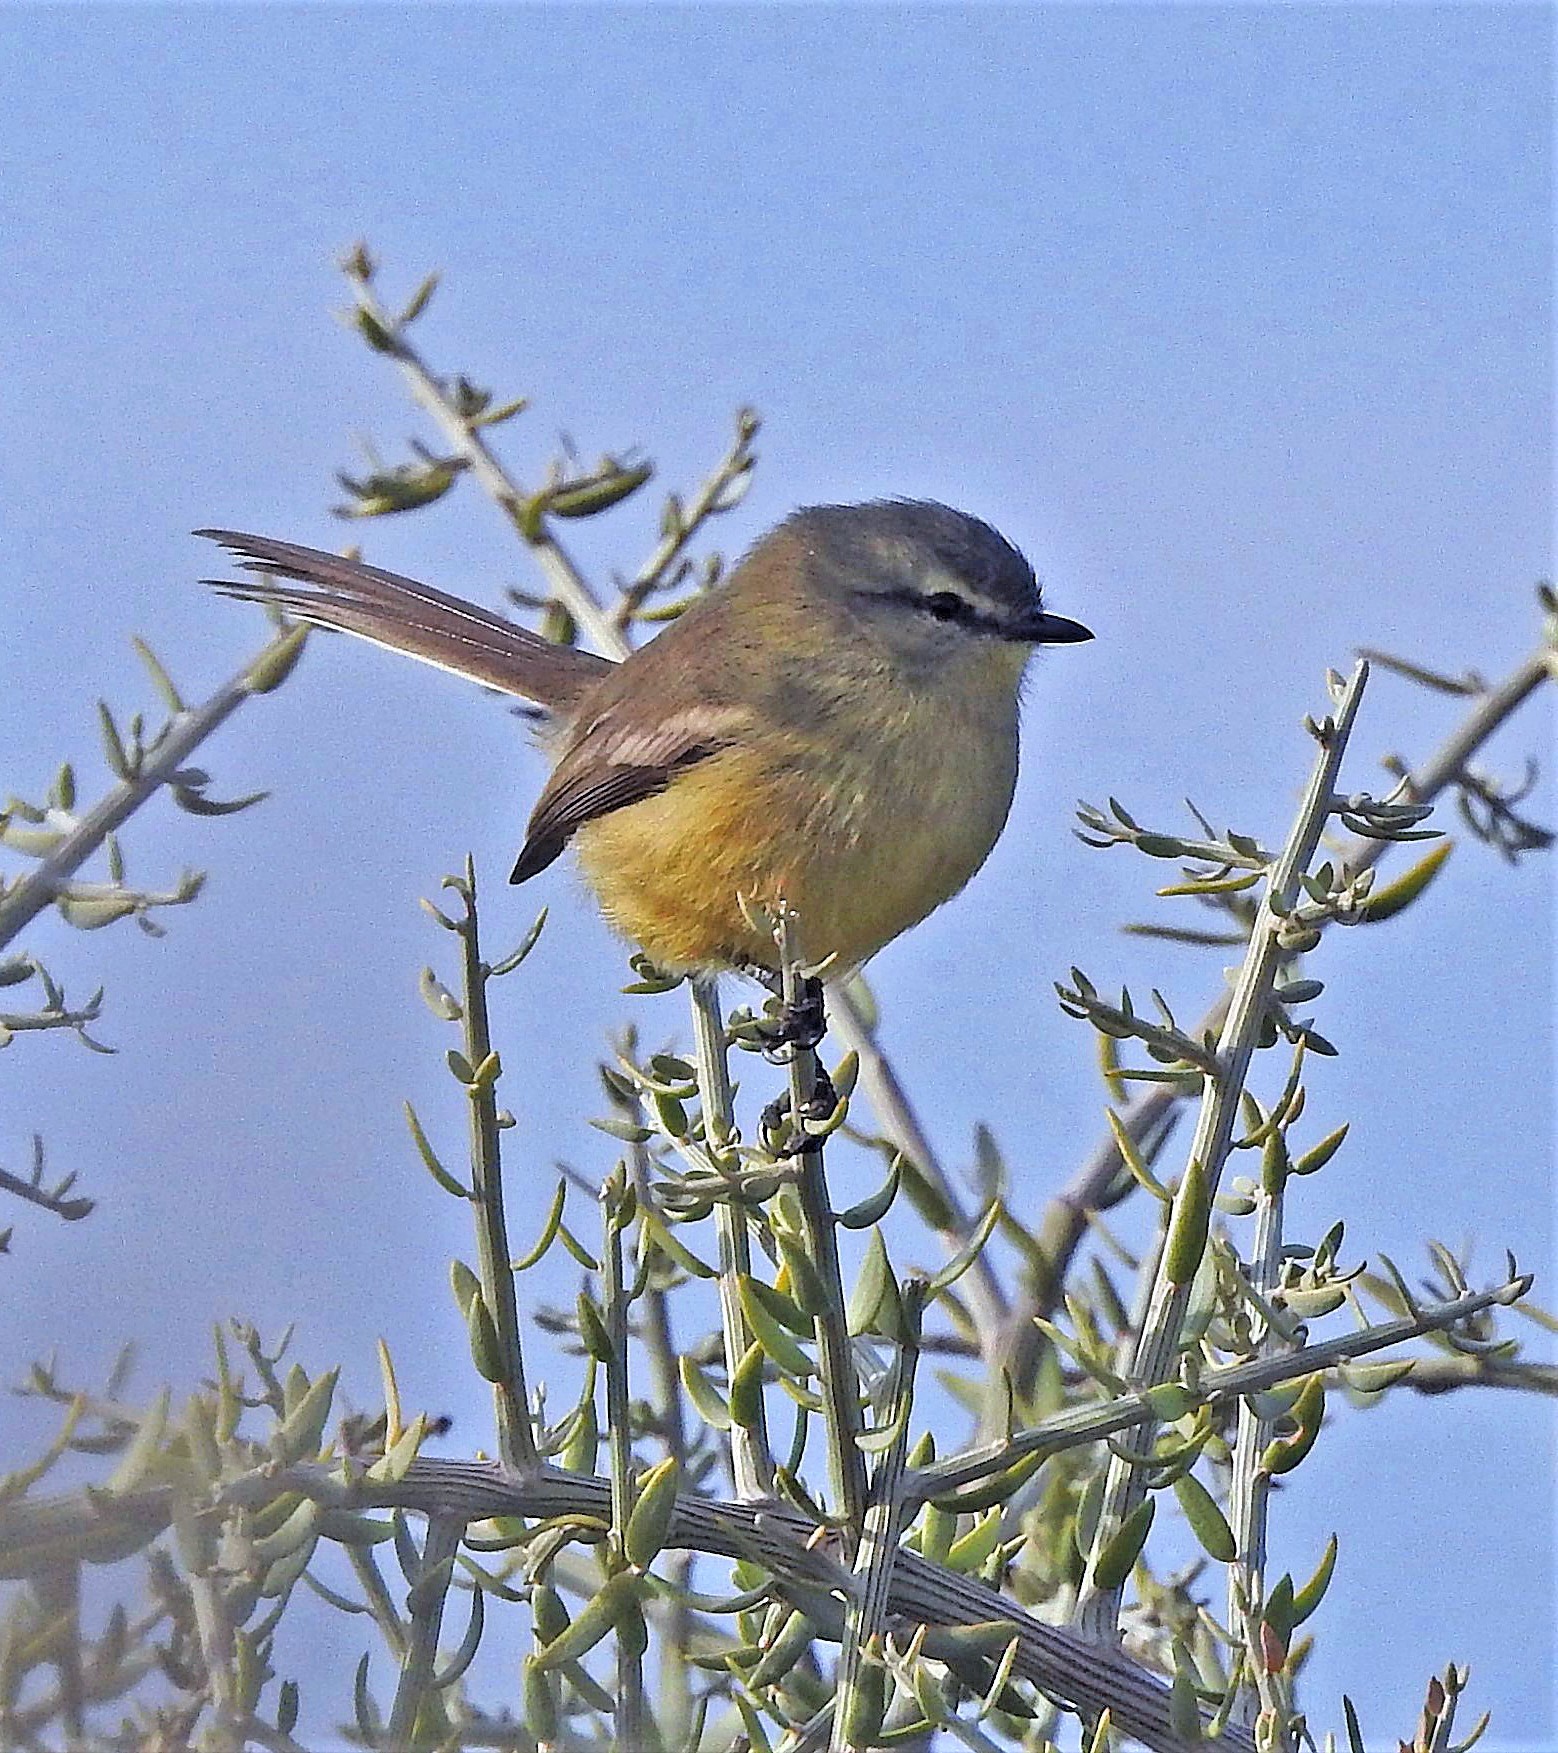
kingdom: Animalia
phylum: Chordata
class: Aves
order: Passeriformes
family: Tyrannidae
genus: Stigmatura
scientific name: Stigmatura budytoides
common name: Greater wagtail-tyrant
